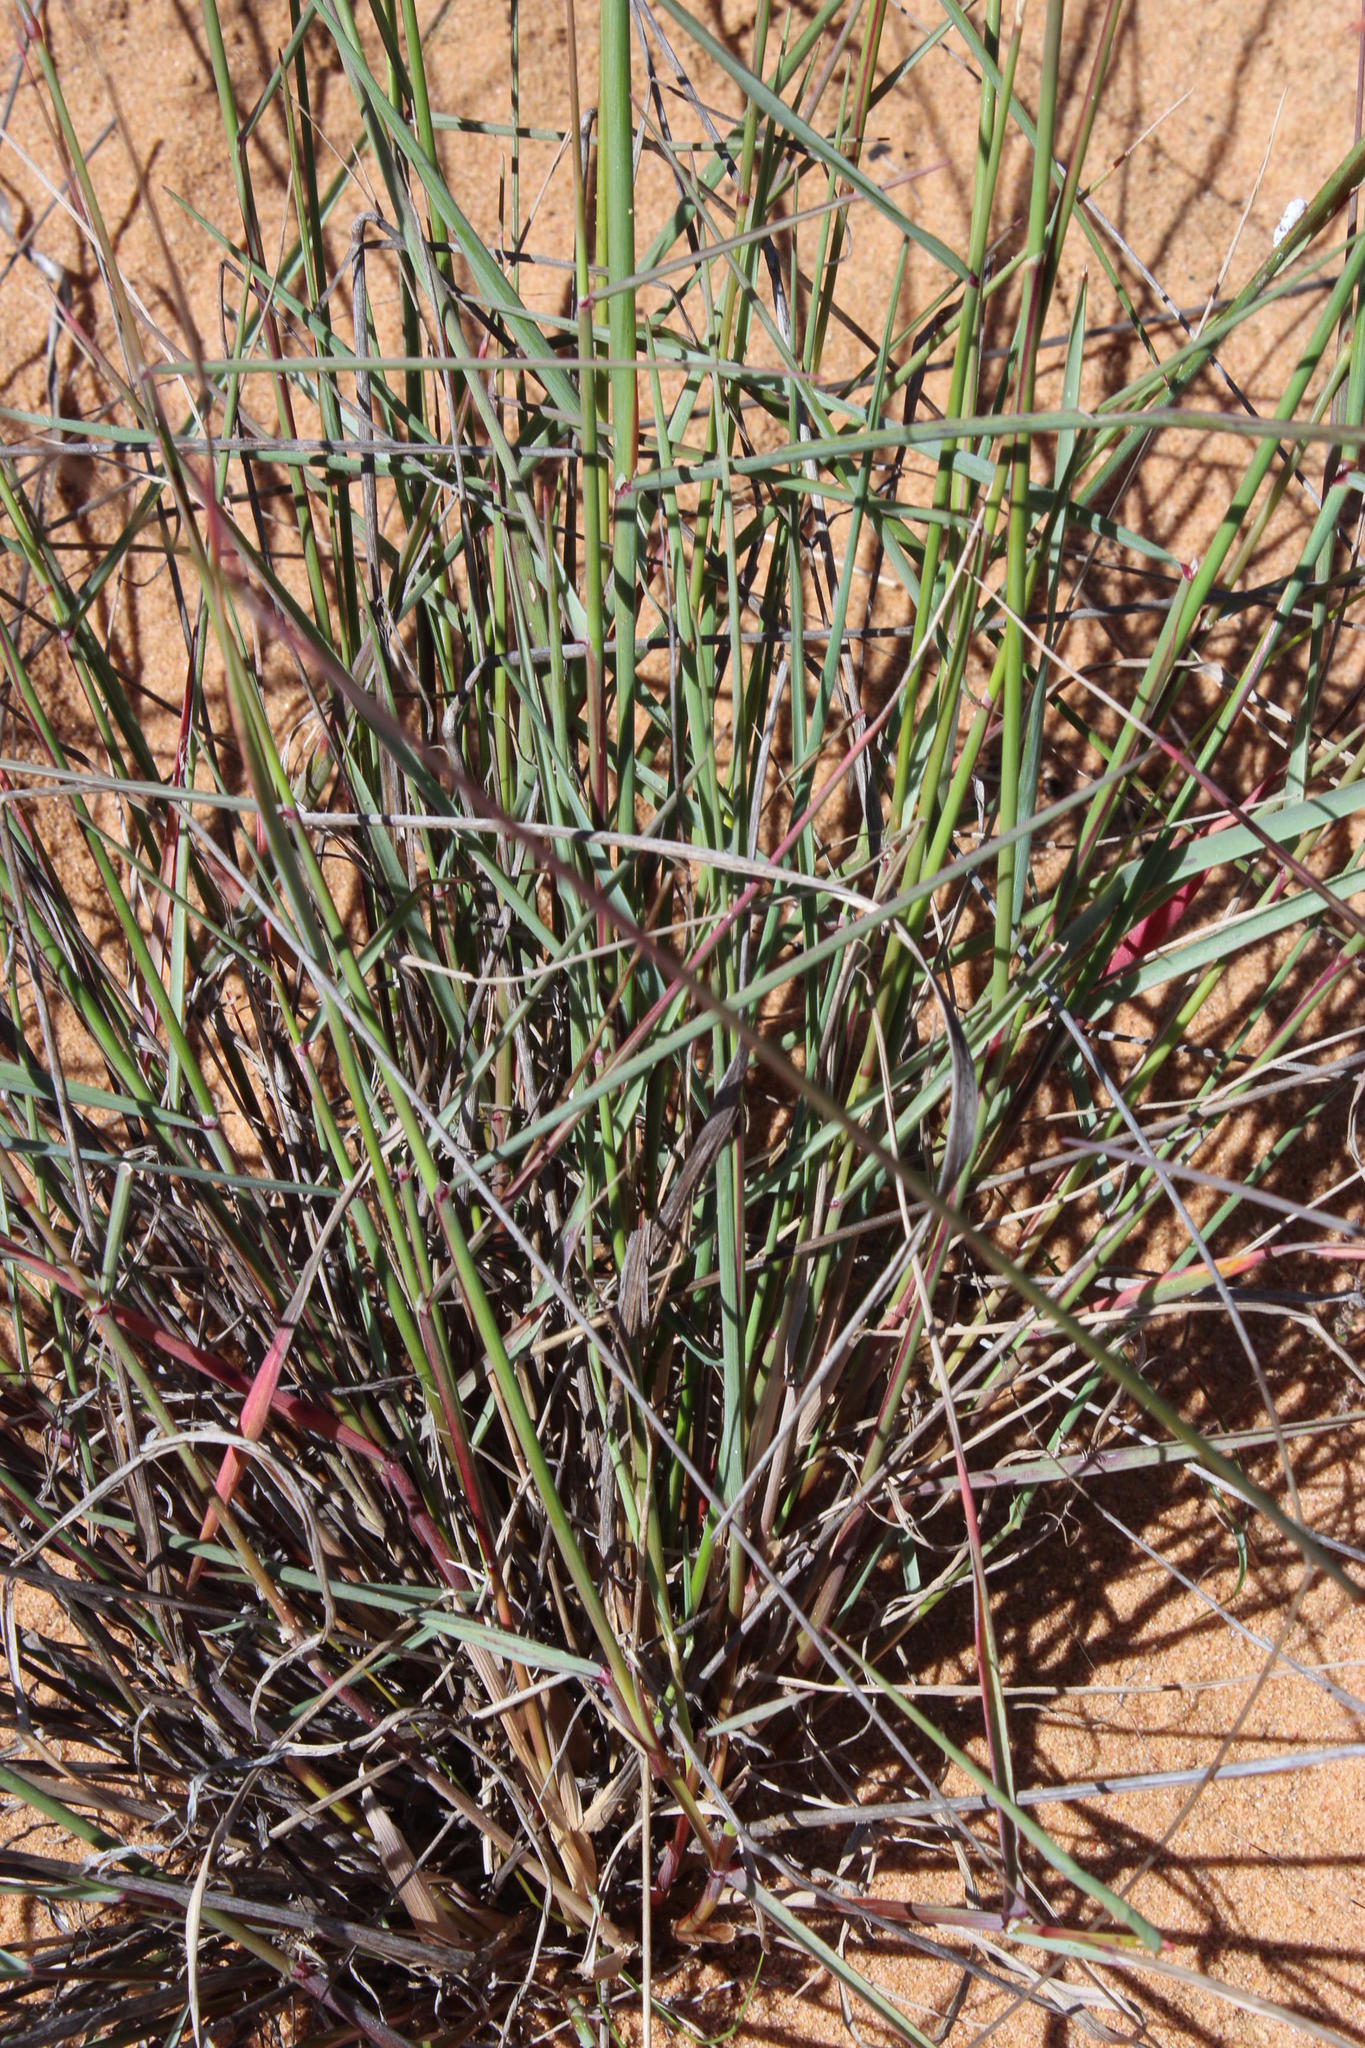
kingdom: Plantae
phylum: Tracheophyta
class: Liliopsida
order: Poales
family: Poaceae
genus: Ehrharta
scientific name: Ehrharta calycina
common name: Perennial veldtgrass
